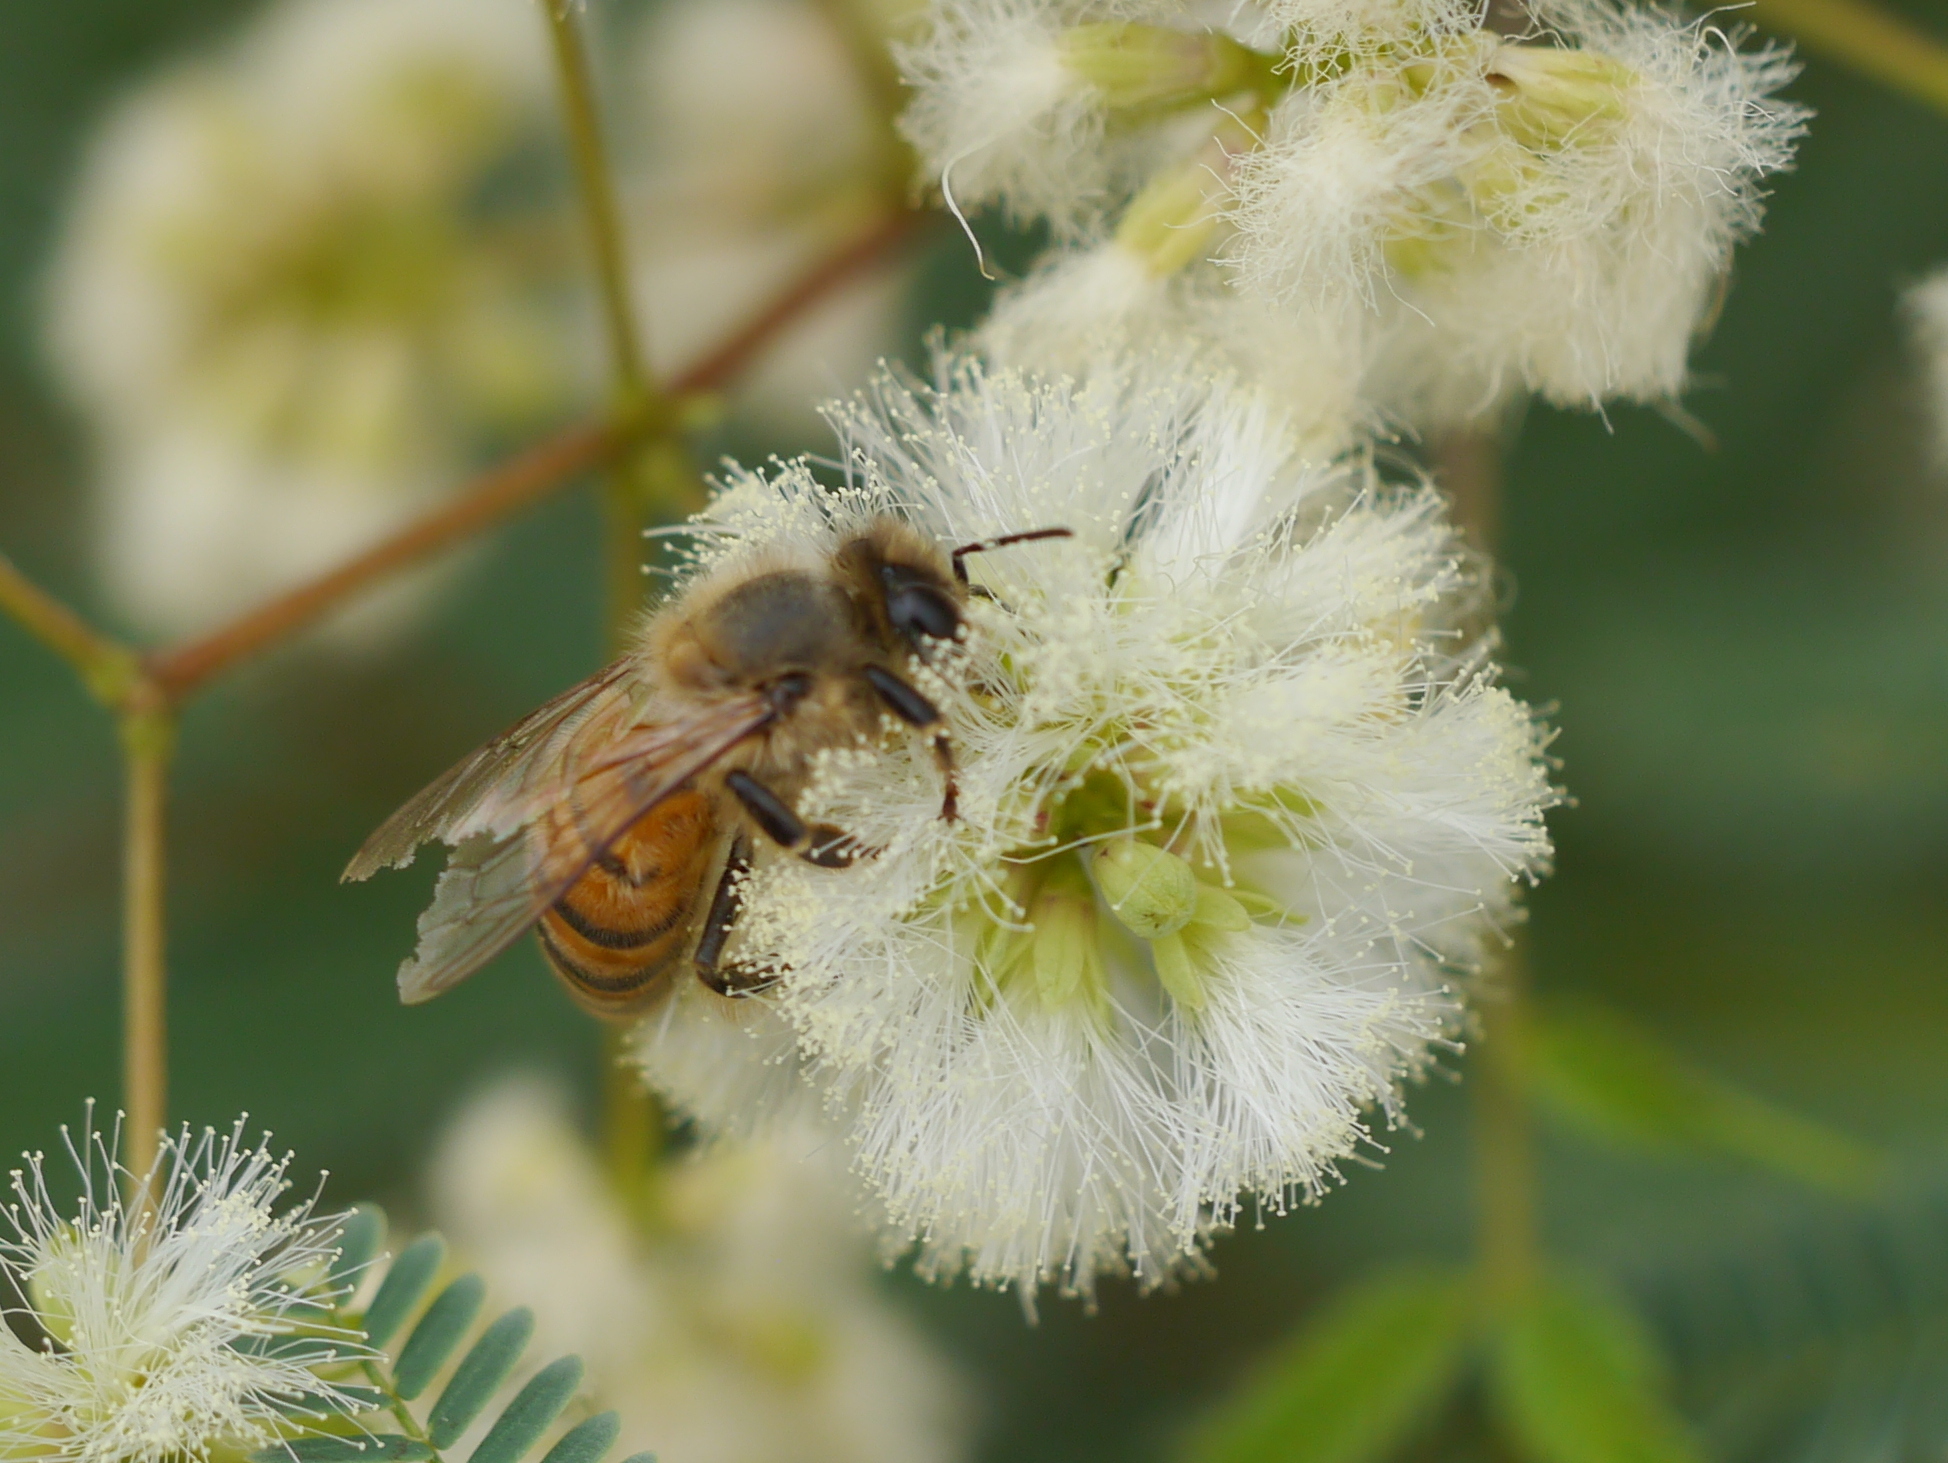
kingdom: Animalia
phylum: Arthropoda
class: Insecta
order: Hymenoptera
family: Apidae
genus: Apis
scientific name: Apis mellifera
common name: Honey bee
